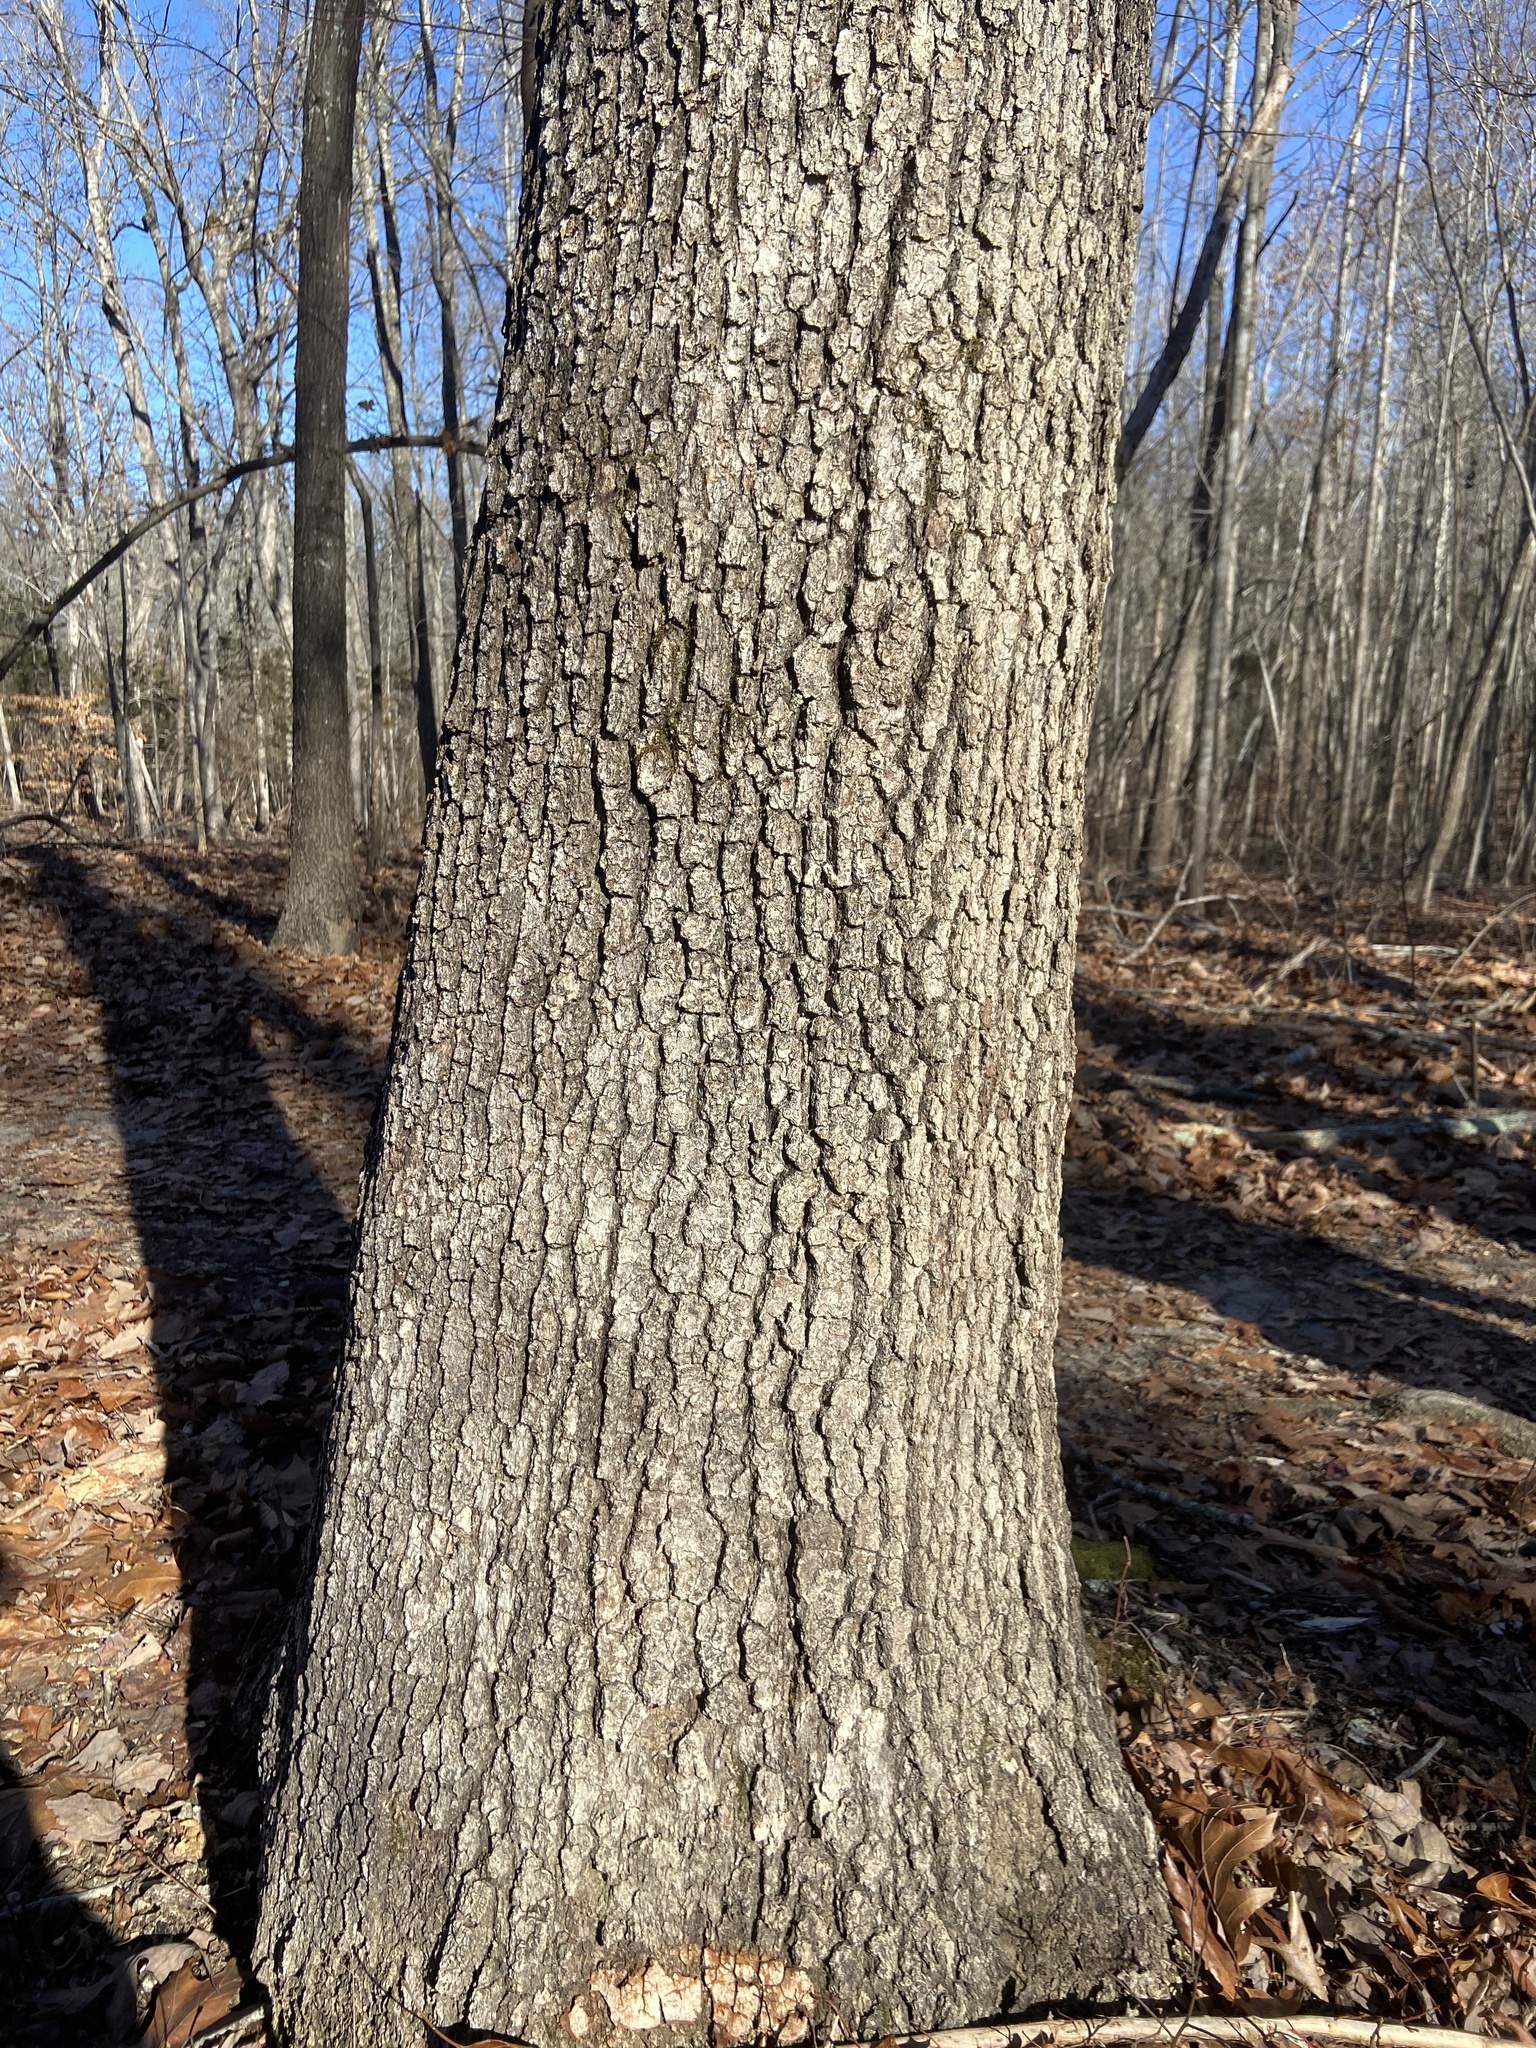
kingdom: Plantae
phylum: Tracheophyta
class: Magnoliopsida
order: Fagales
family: Fagaceae
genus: Quercus
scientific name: Quercus alba
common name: White oak
